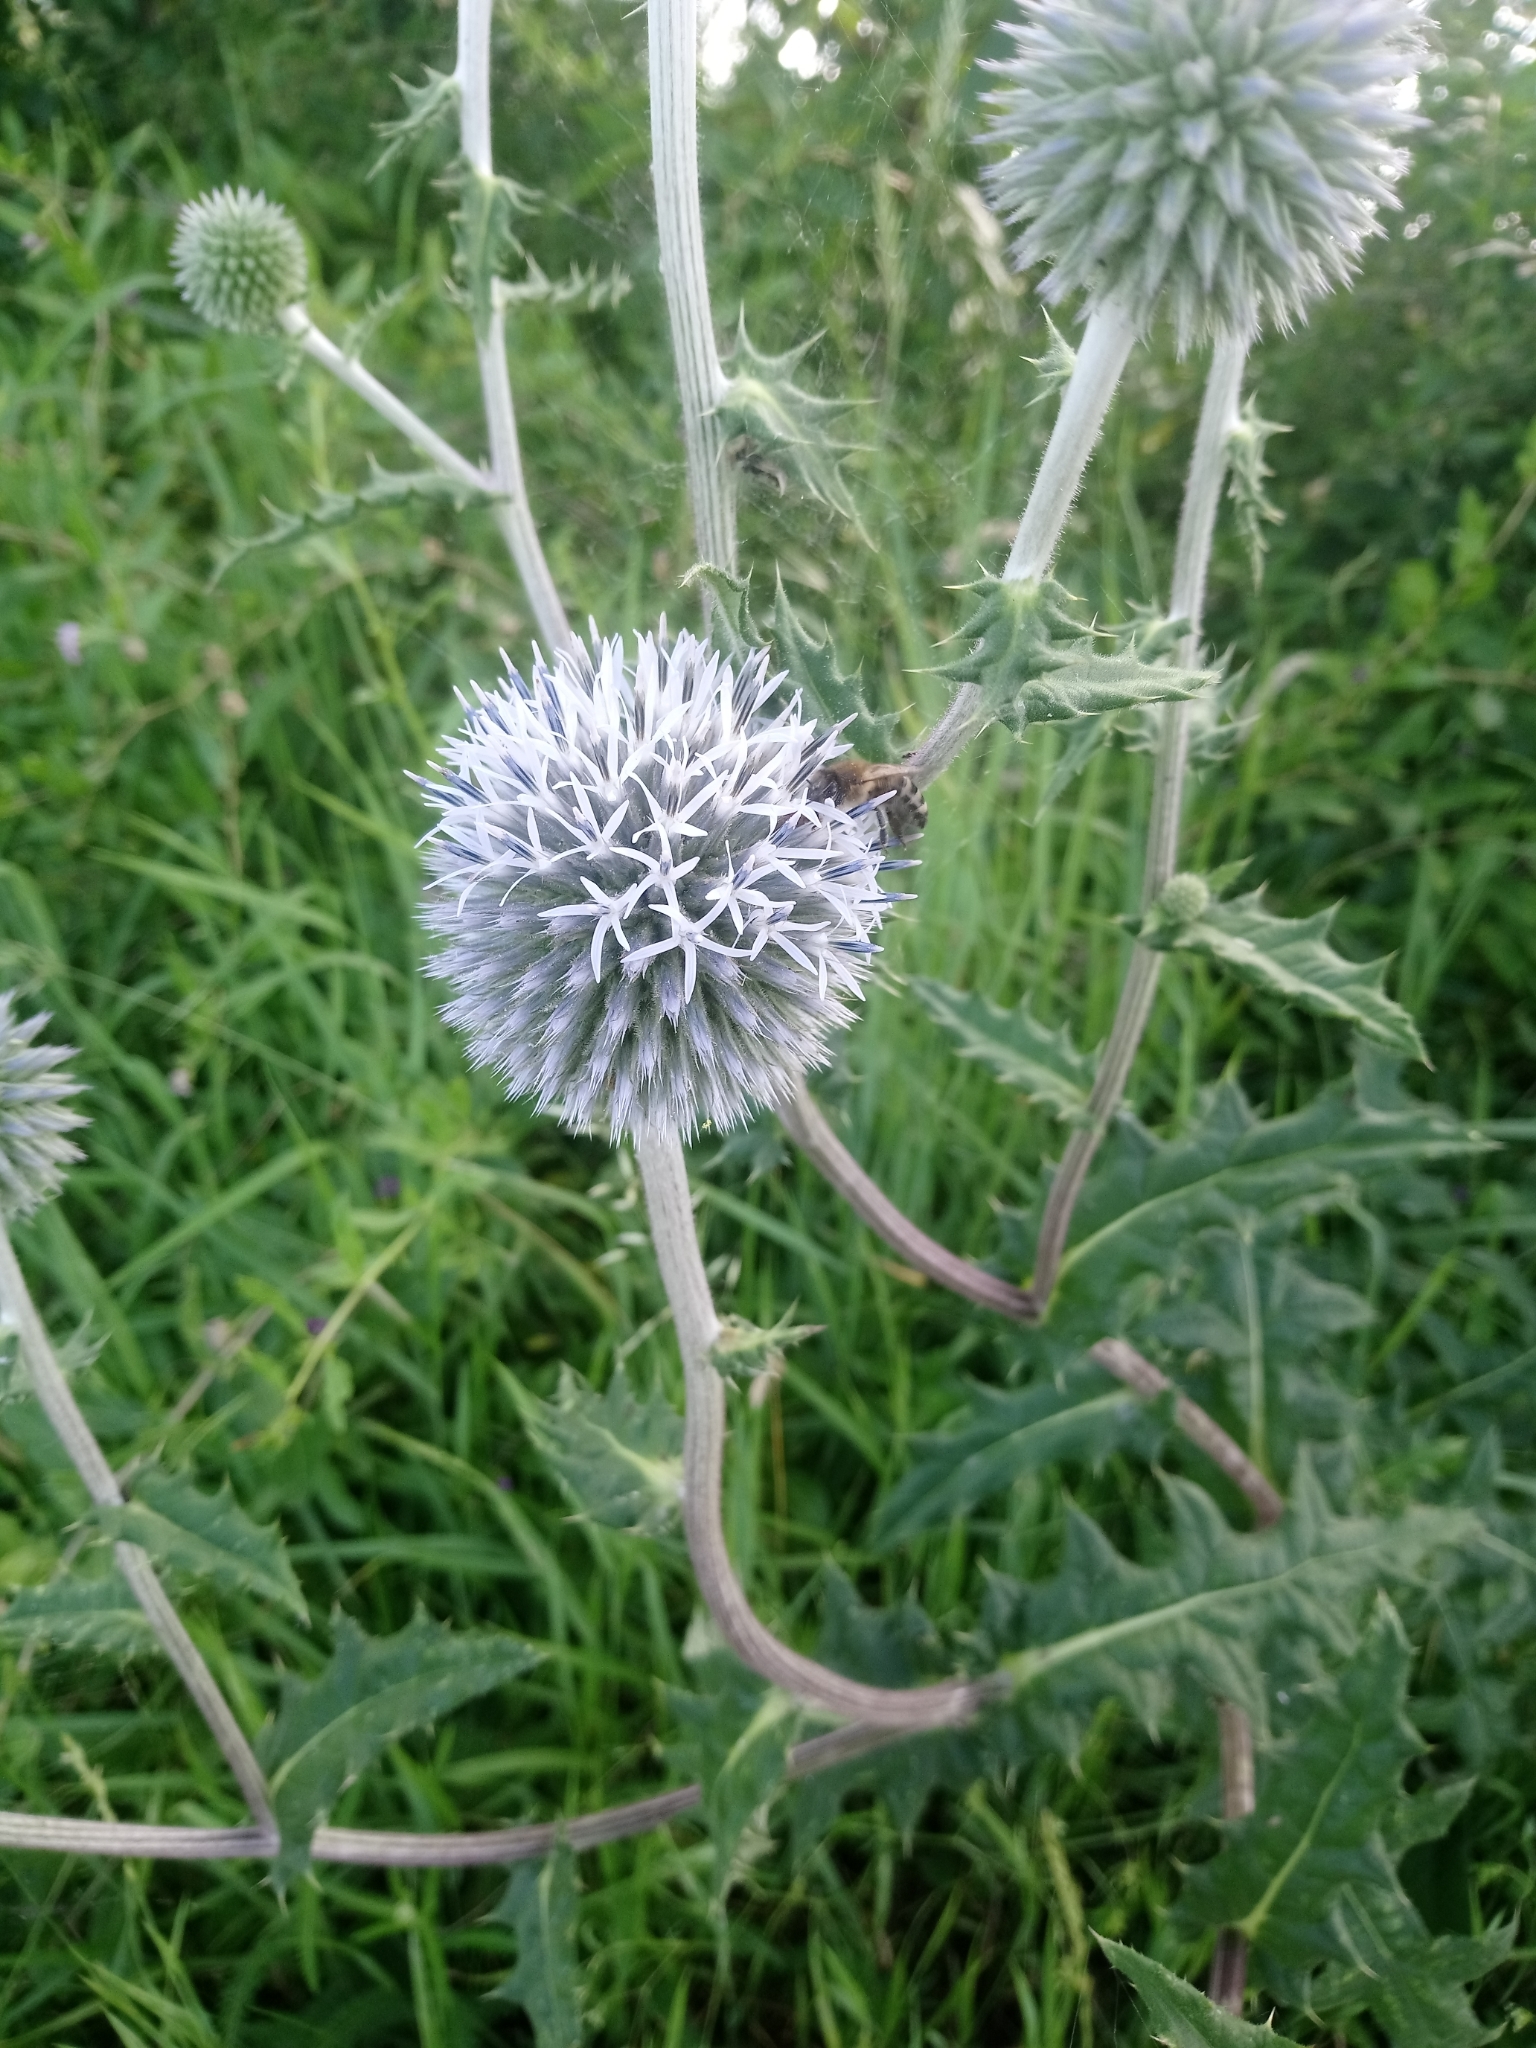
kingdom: Plantae
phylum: Tracheophyta
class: Magnoliopsida
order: Asterales
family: Asteraceae
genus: Echinops
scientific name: Echinops sphaerocephalus
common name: Glandular globe-thistle
